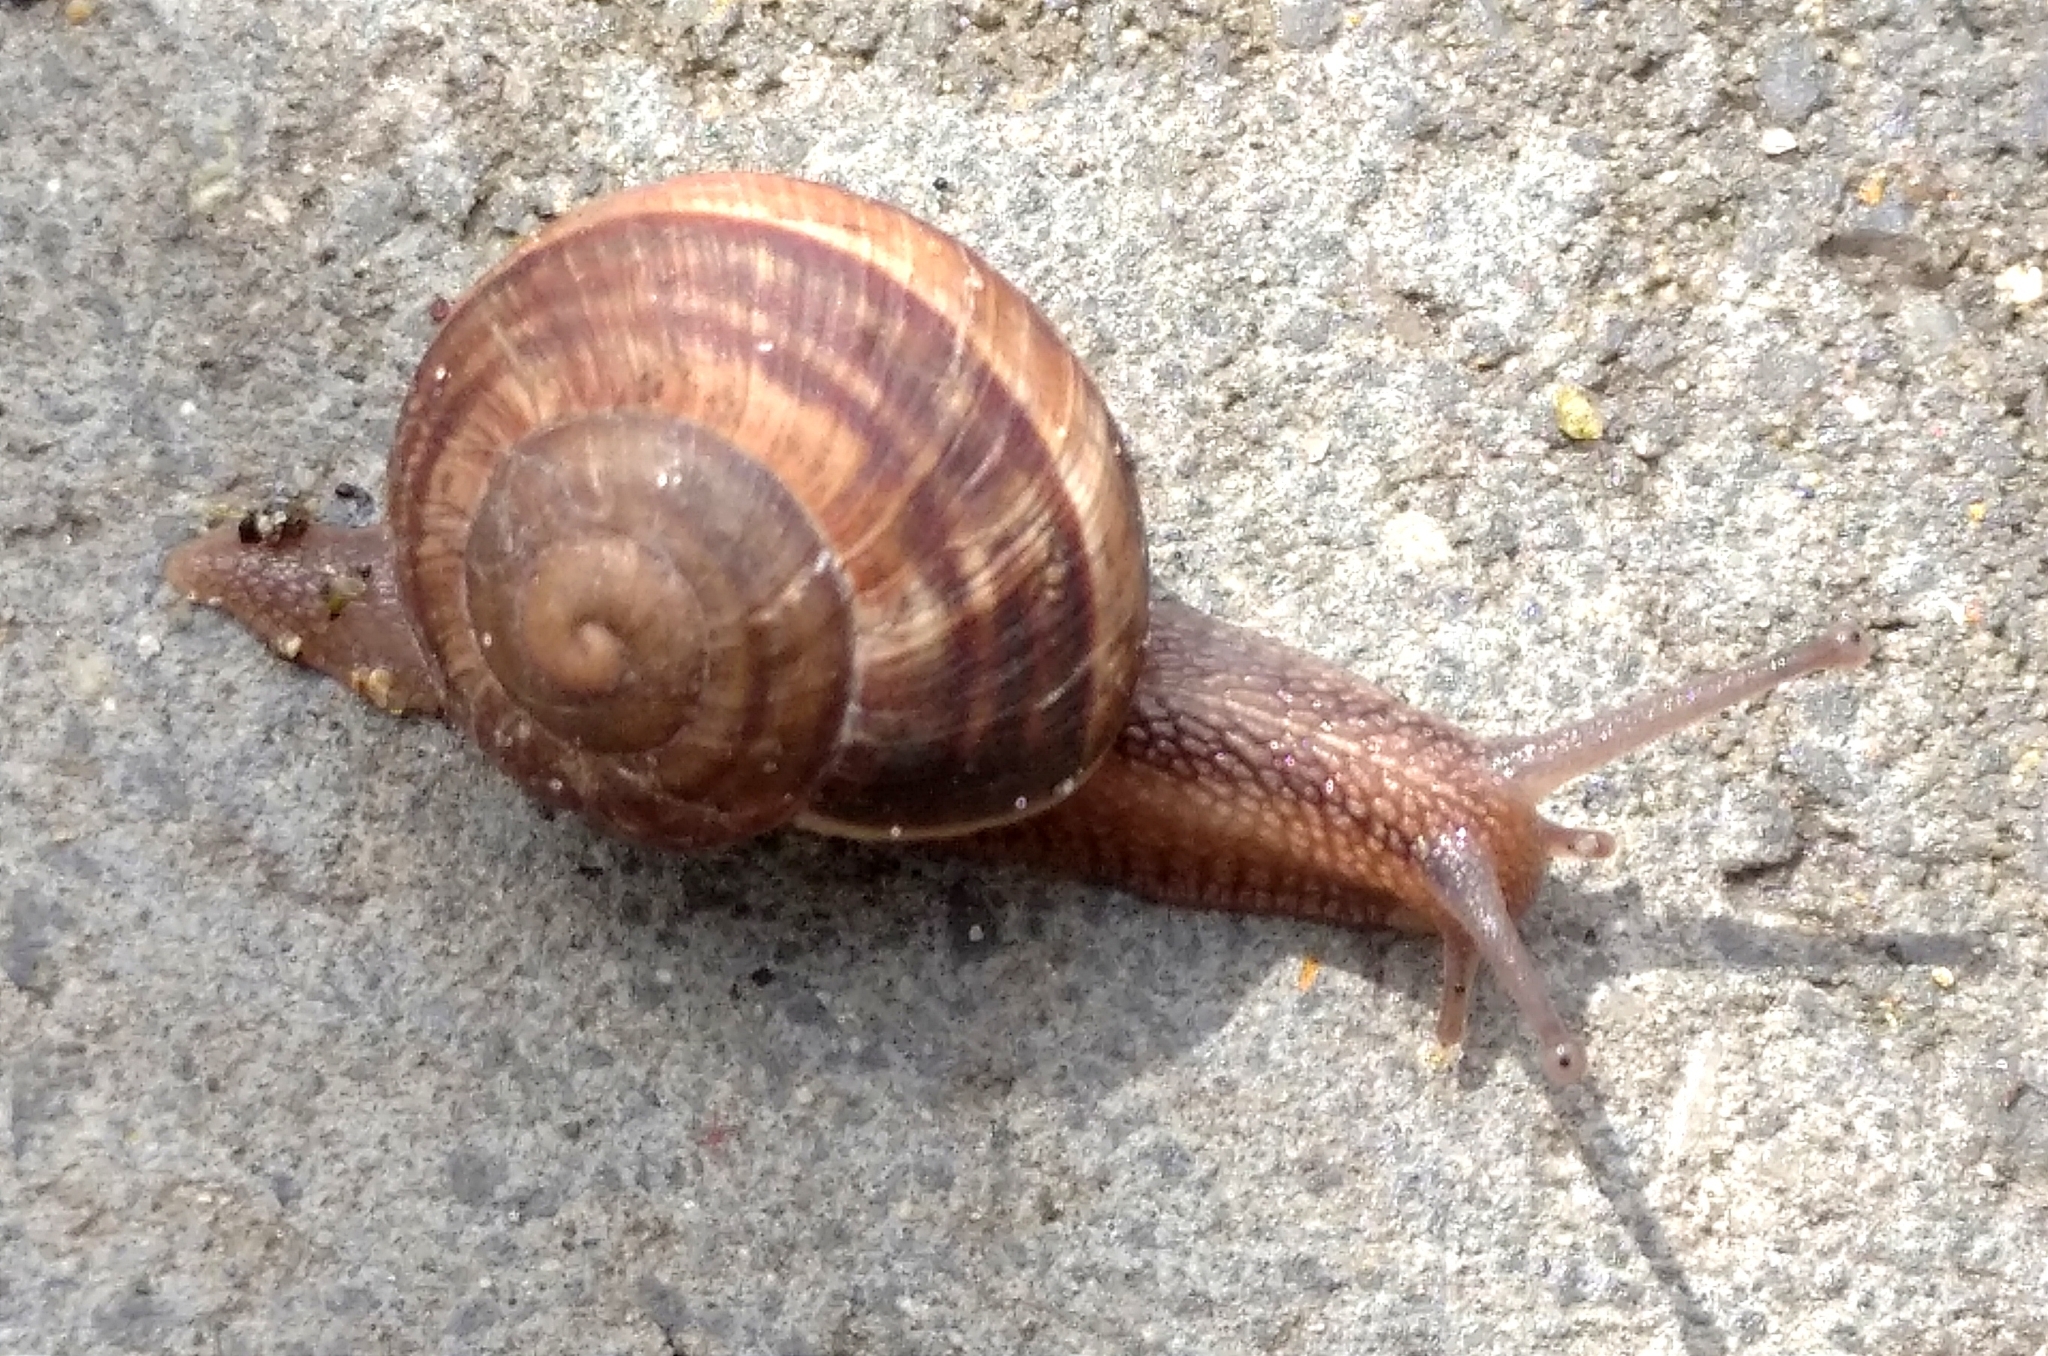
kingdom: Animalia
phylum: Mollusca
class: Gastropoda
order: Stylommatophora
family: Helicidae
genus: Helix
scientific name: Helix lucorum
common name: Turkish snail
